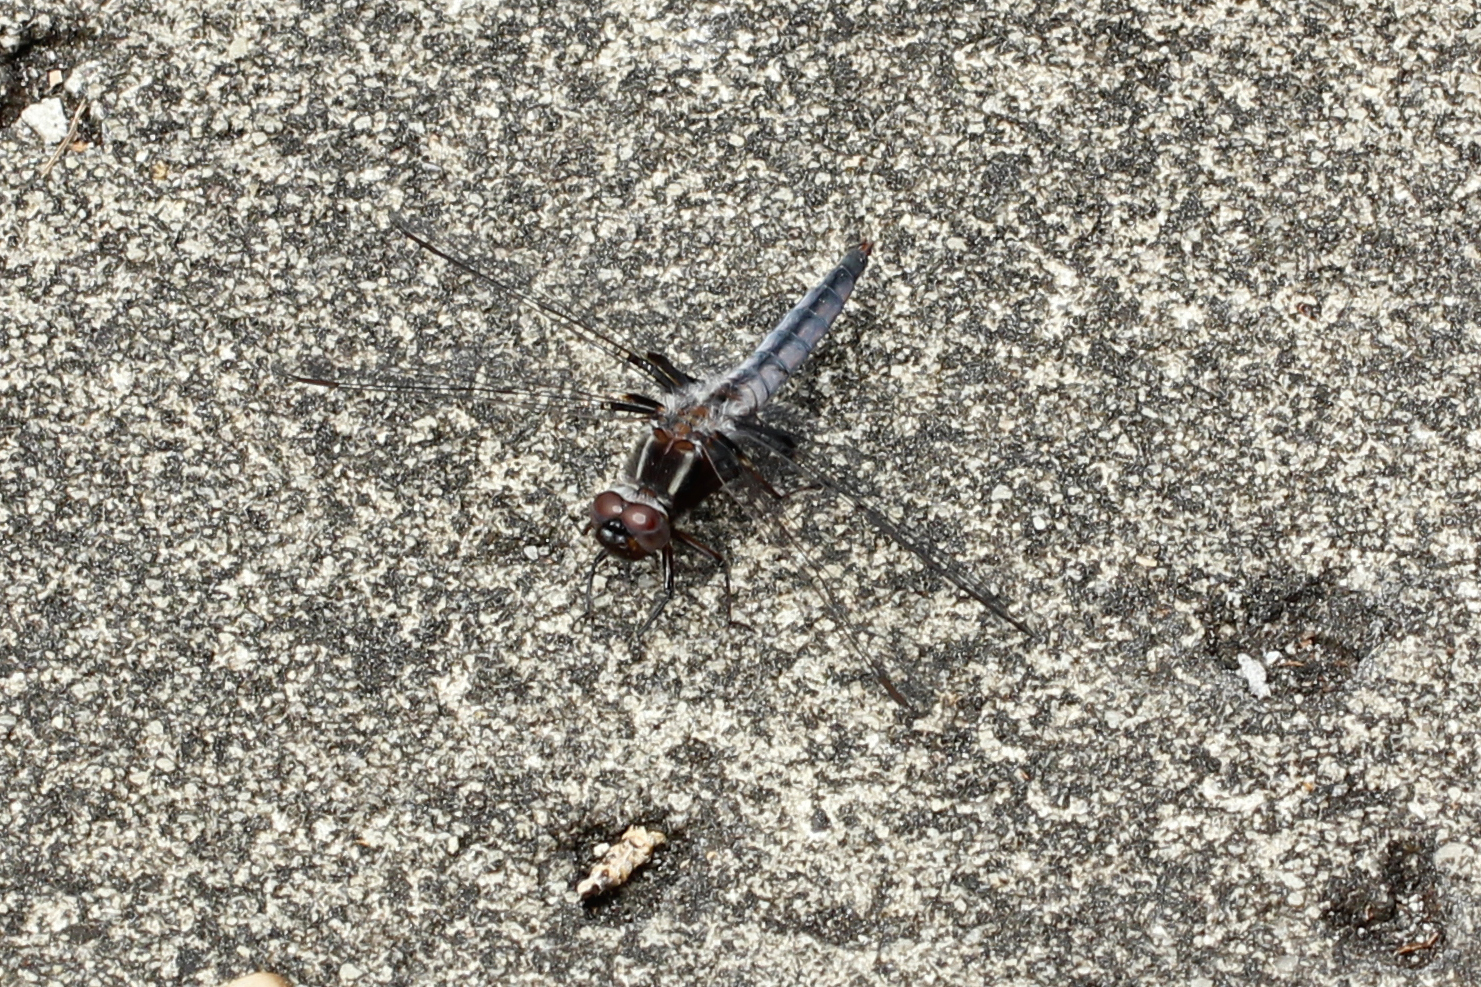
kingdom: Animalia
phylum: Arthropoda
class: Insecta
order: Odonata
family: Libellulidae
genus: Ladona
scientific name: Ladona deplanata
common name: Blue corporal
